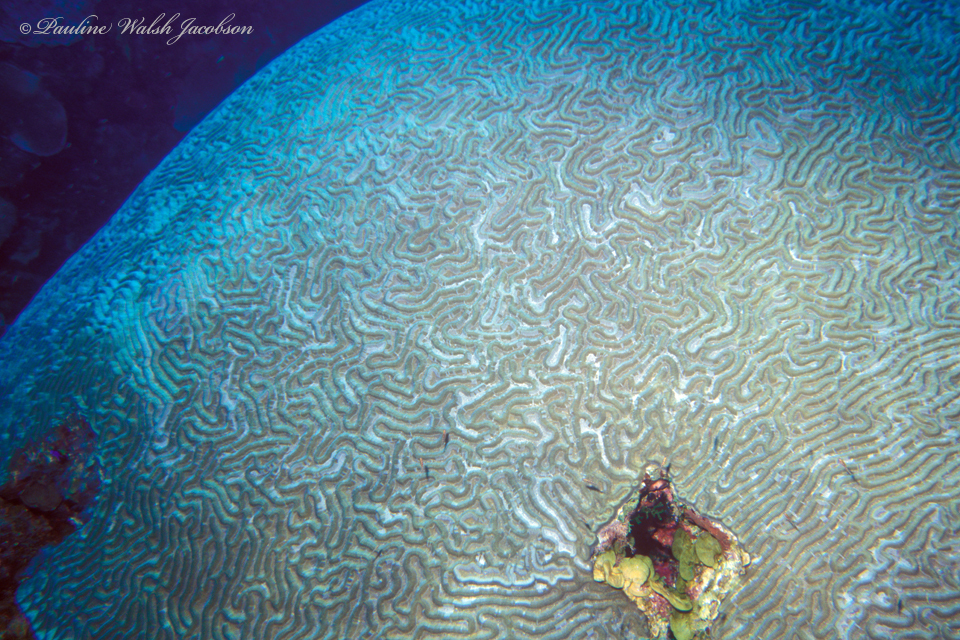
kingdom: Animalia
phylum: Cnidaria
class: Anthozoa
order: Scleractinia
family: Faviidae
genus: Pseudodiploria
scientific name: Pseudodiploria strigosa
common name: Symmetrical brain coral
